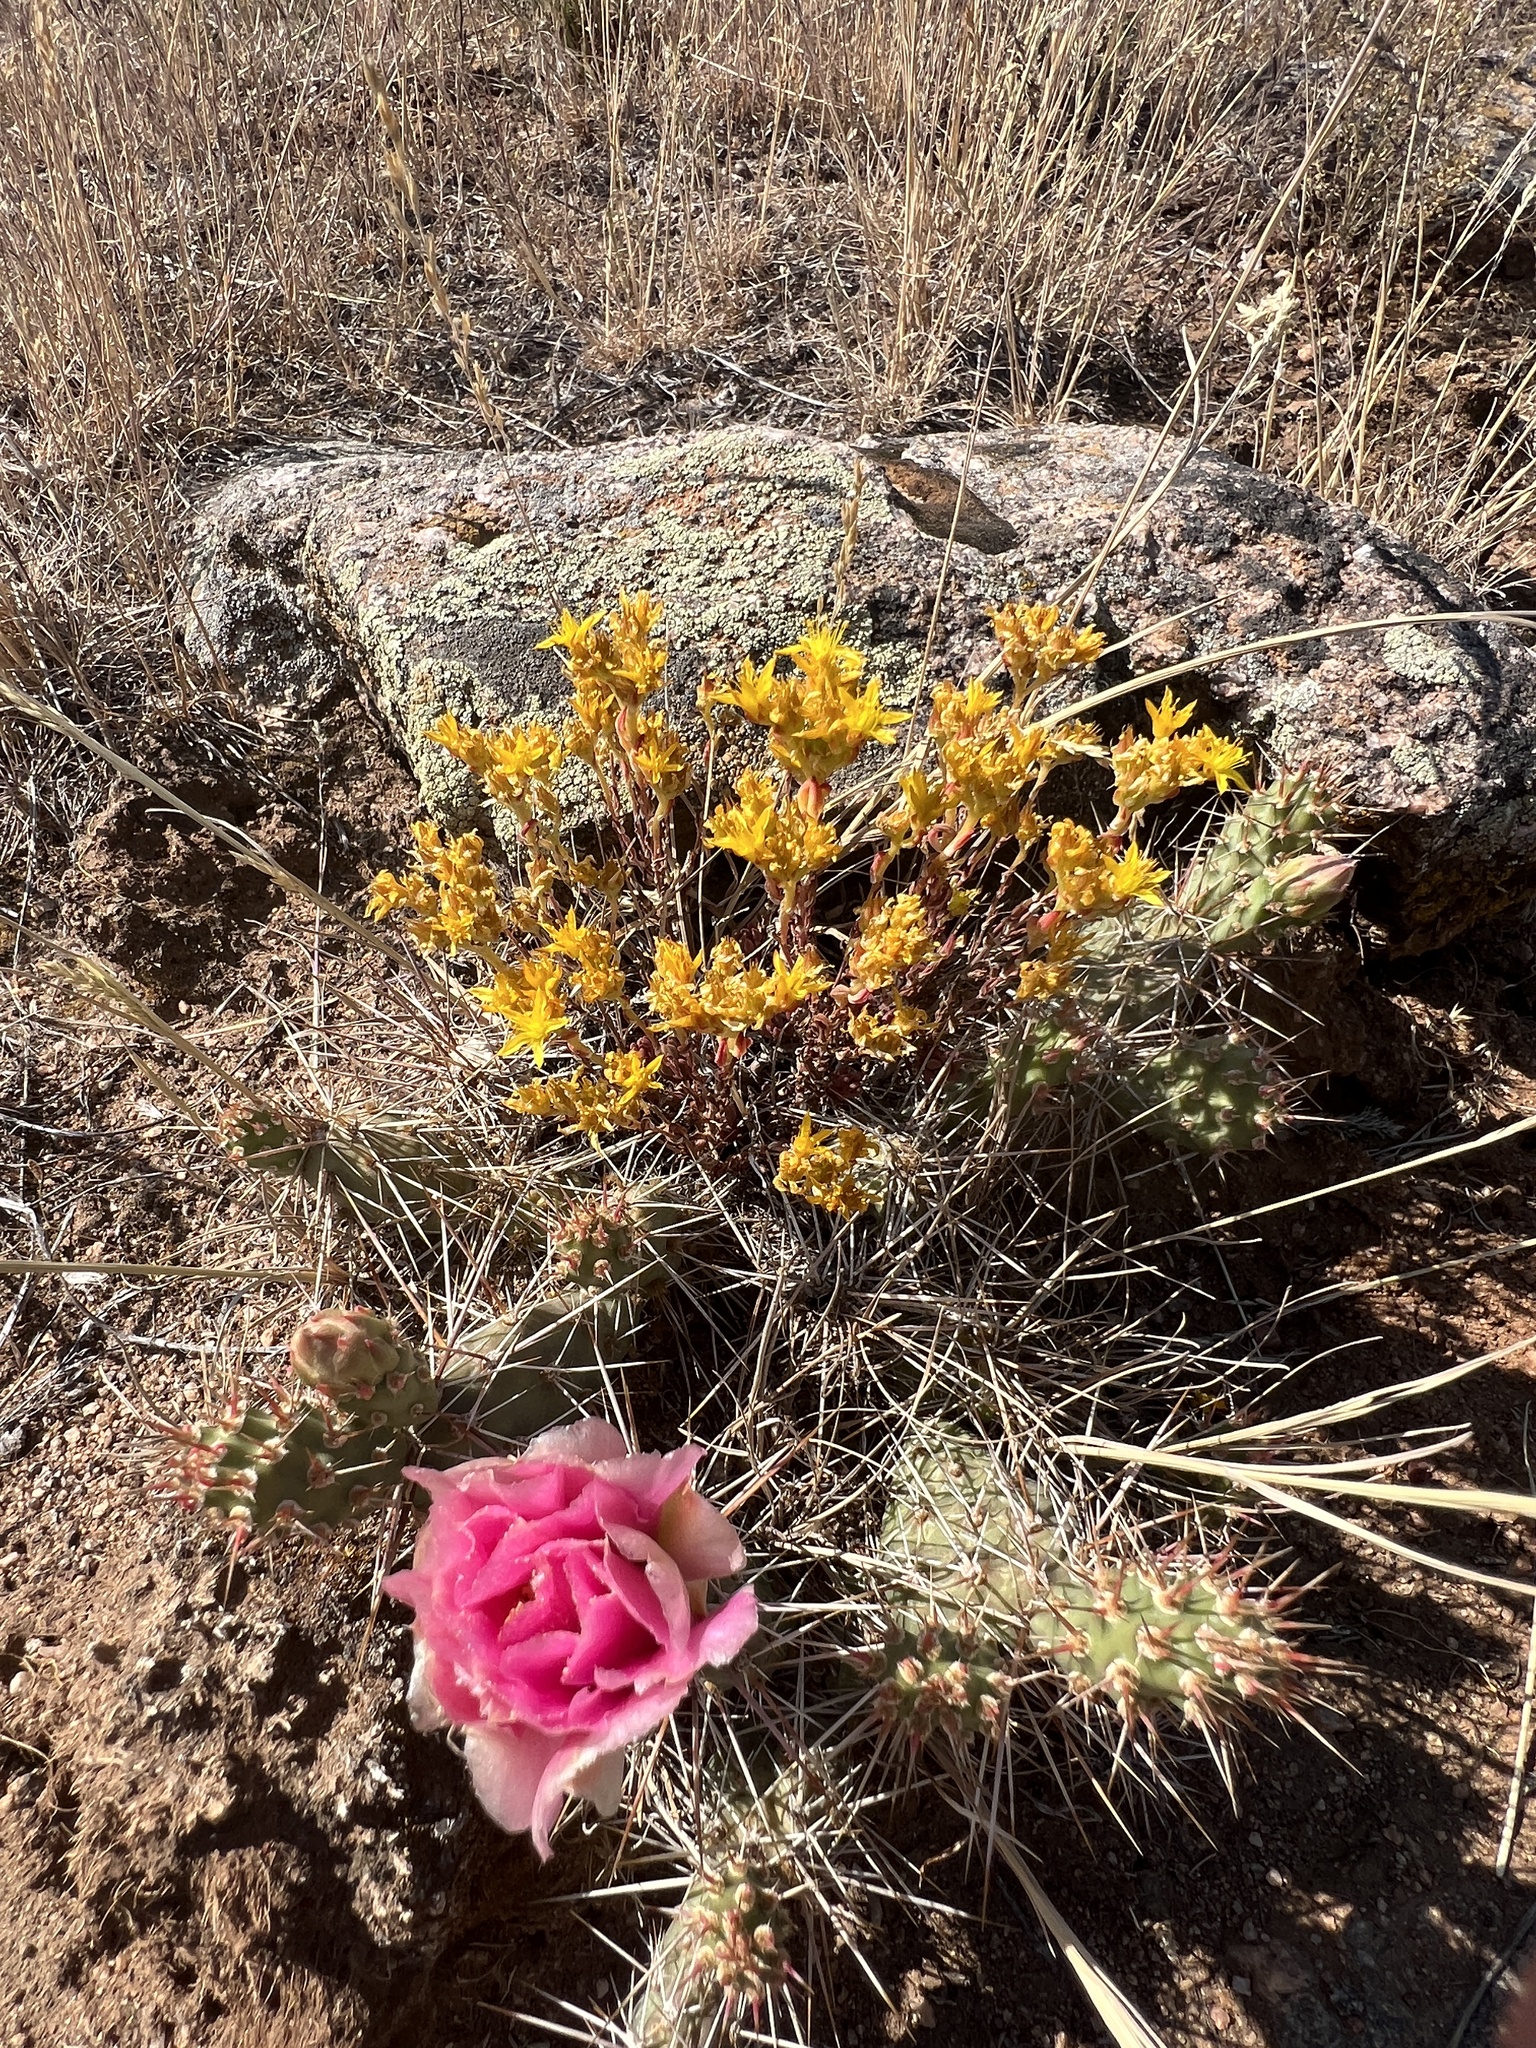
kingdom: Plantae
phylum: Tracheophyta
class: Magnoliopsida
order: Caryophyllales
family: Cactaceae
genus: Opuntia
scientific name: Opuntia fragilis
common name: Brittle cactus
